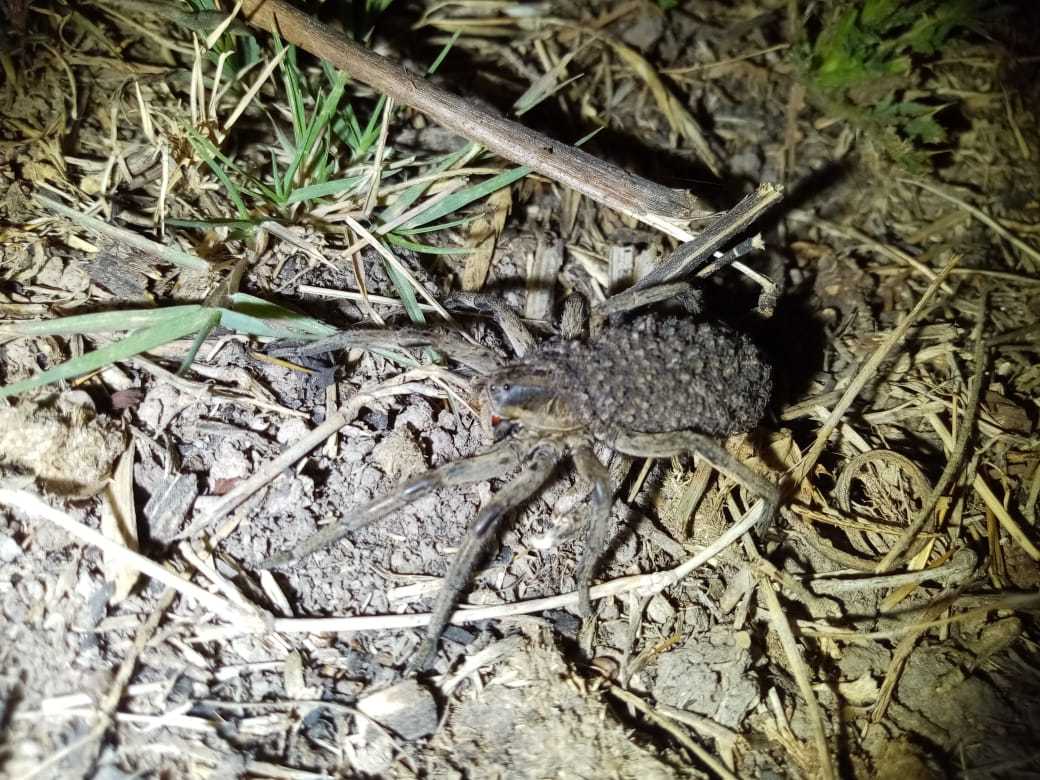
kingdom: Animalia
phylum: Arthropoda
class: Arachnida
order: Araneae
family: Lycosidae
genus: Lycosa
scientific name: Lycosa erythrognatha
